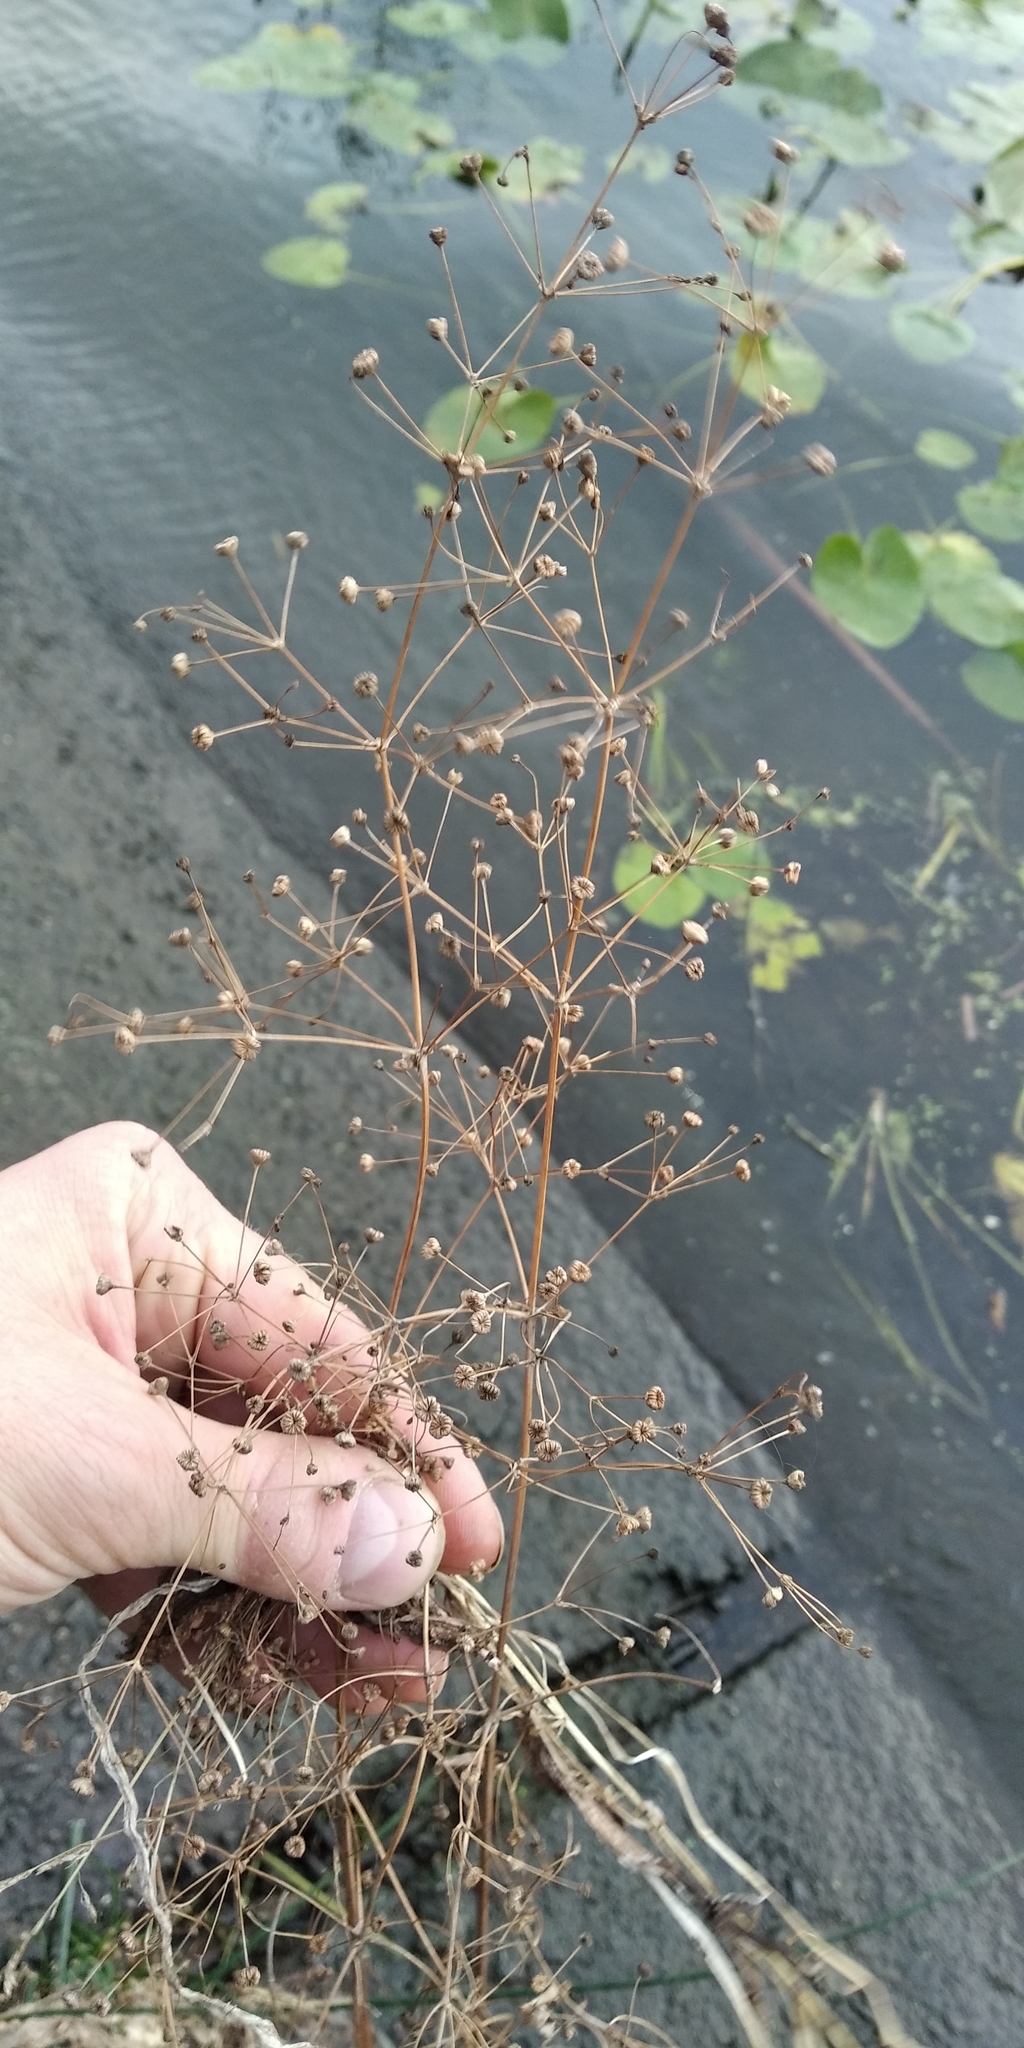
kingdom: Plantae
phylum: Tracheophyta
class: Liliopsida
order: Alismatales
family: Alismataceae
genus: Alisma
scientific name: Alisma plantago-aquatica
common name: Water-plantain
